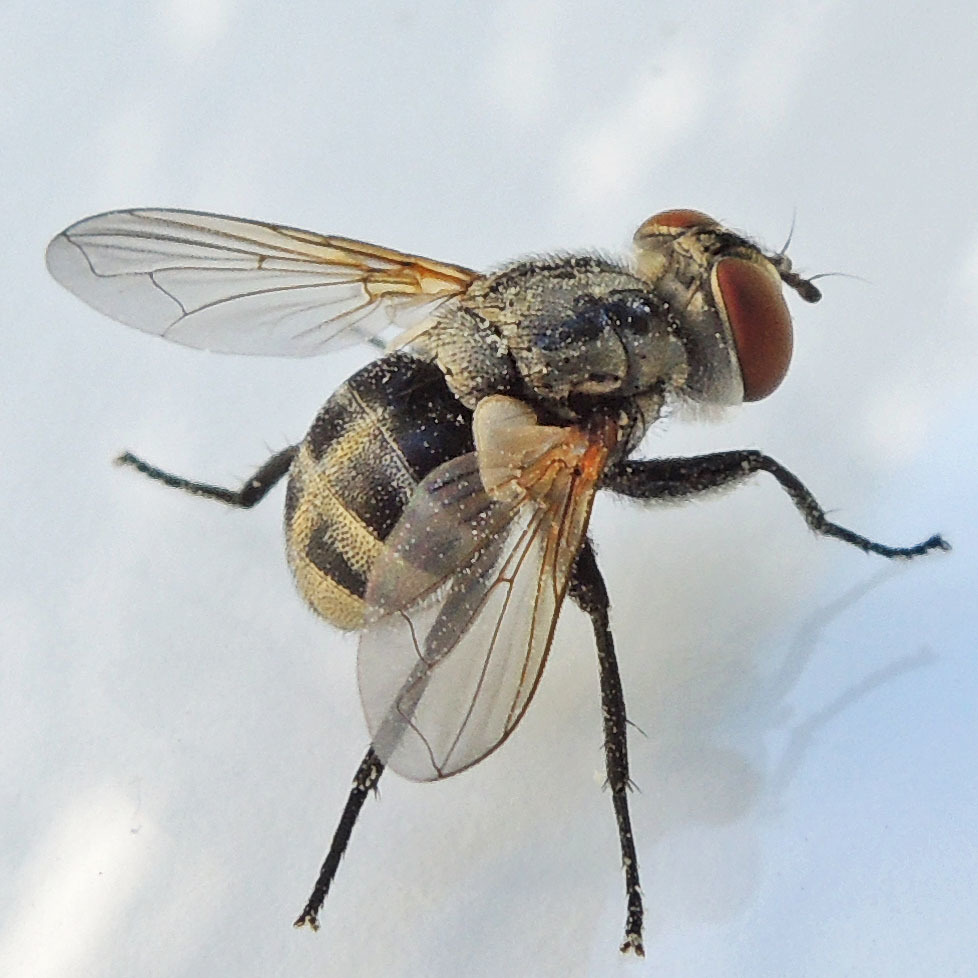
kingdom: Animalia
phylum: Arthropoda
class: Insecta
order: Diptera
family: Tachinidae
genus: Gymnoclytia
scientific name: Gymnoclytia occidua
